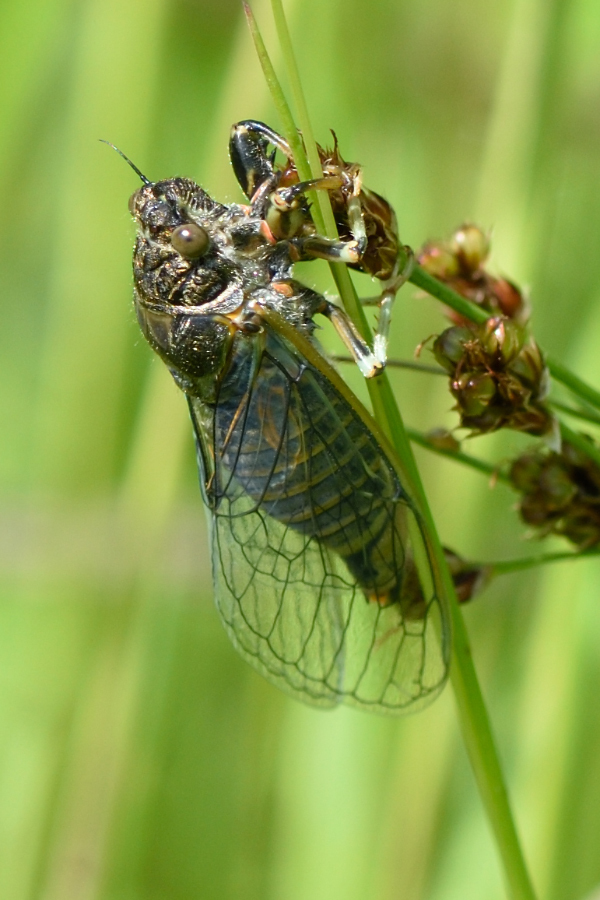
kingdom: Animalia
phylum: Arthropoda
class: Insecta
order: Hemiptera
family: Cicadidae
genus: Cicadetta
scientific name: Cicadetta montana
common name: New forest cicada
